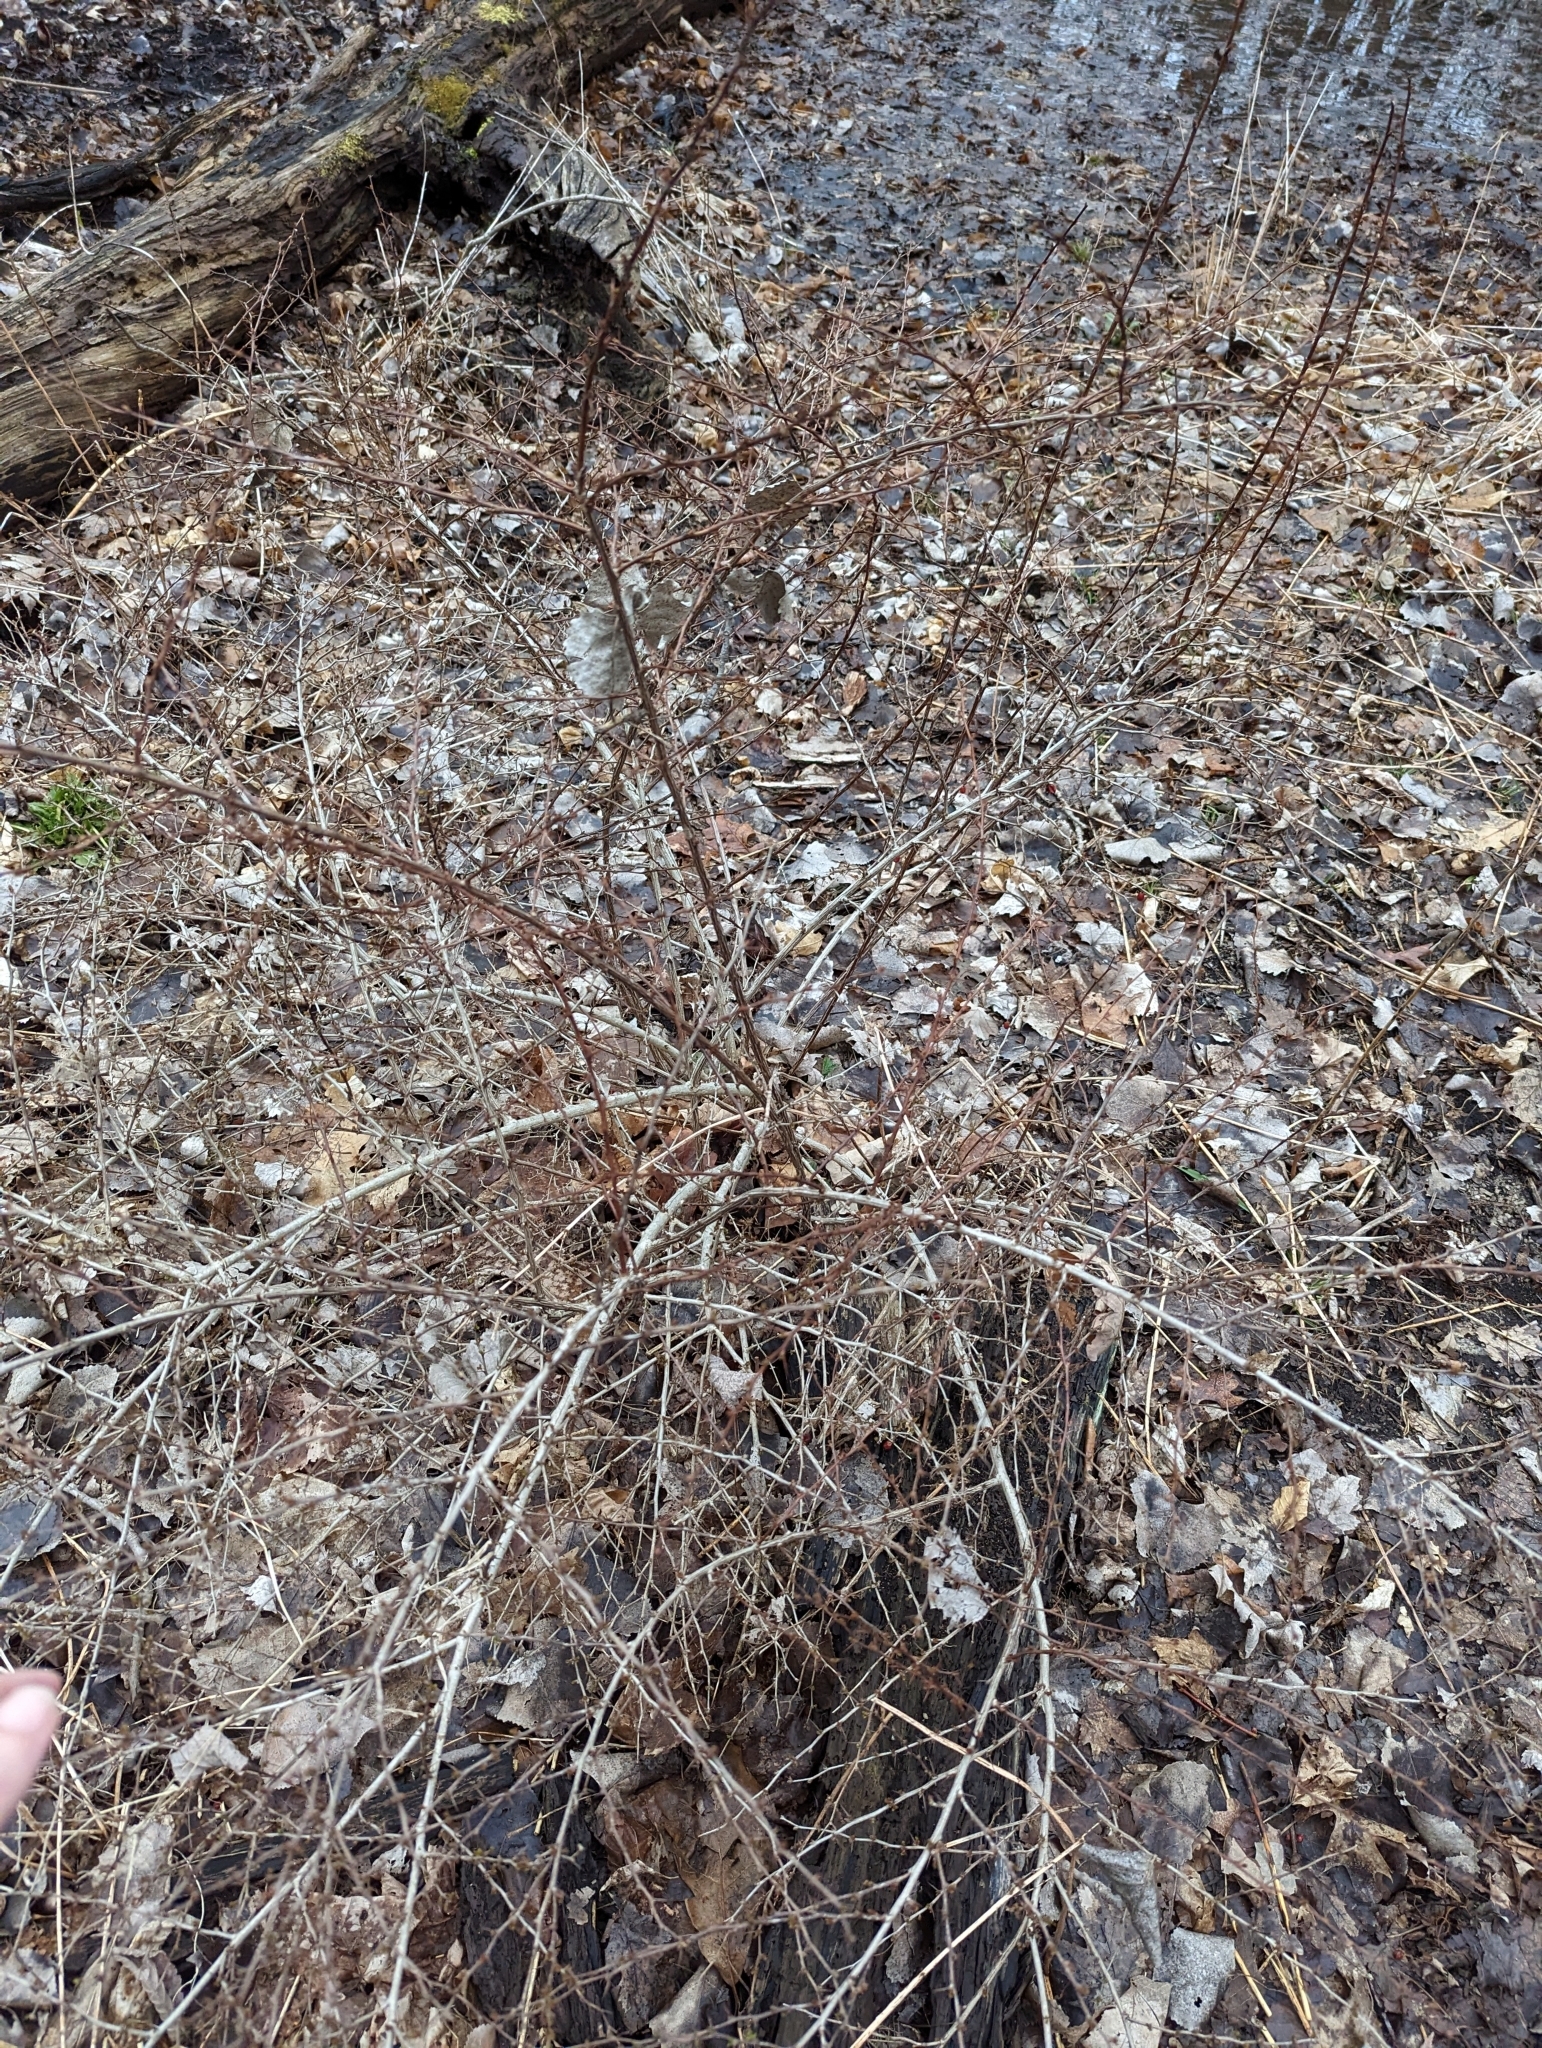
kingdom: Plantae
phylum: Tracheophyta
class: Magnoliopsida
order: Ranunculales
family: Berberidaceae
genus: Berberis
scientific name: Berberis thunbergii
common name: Japanese barberry
